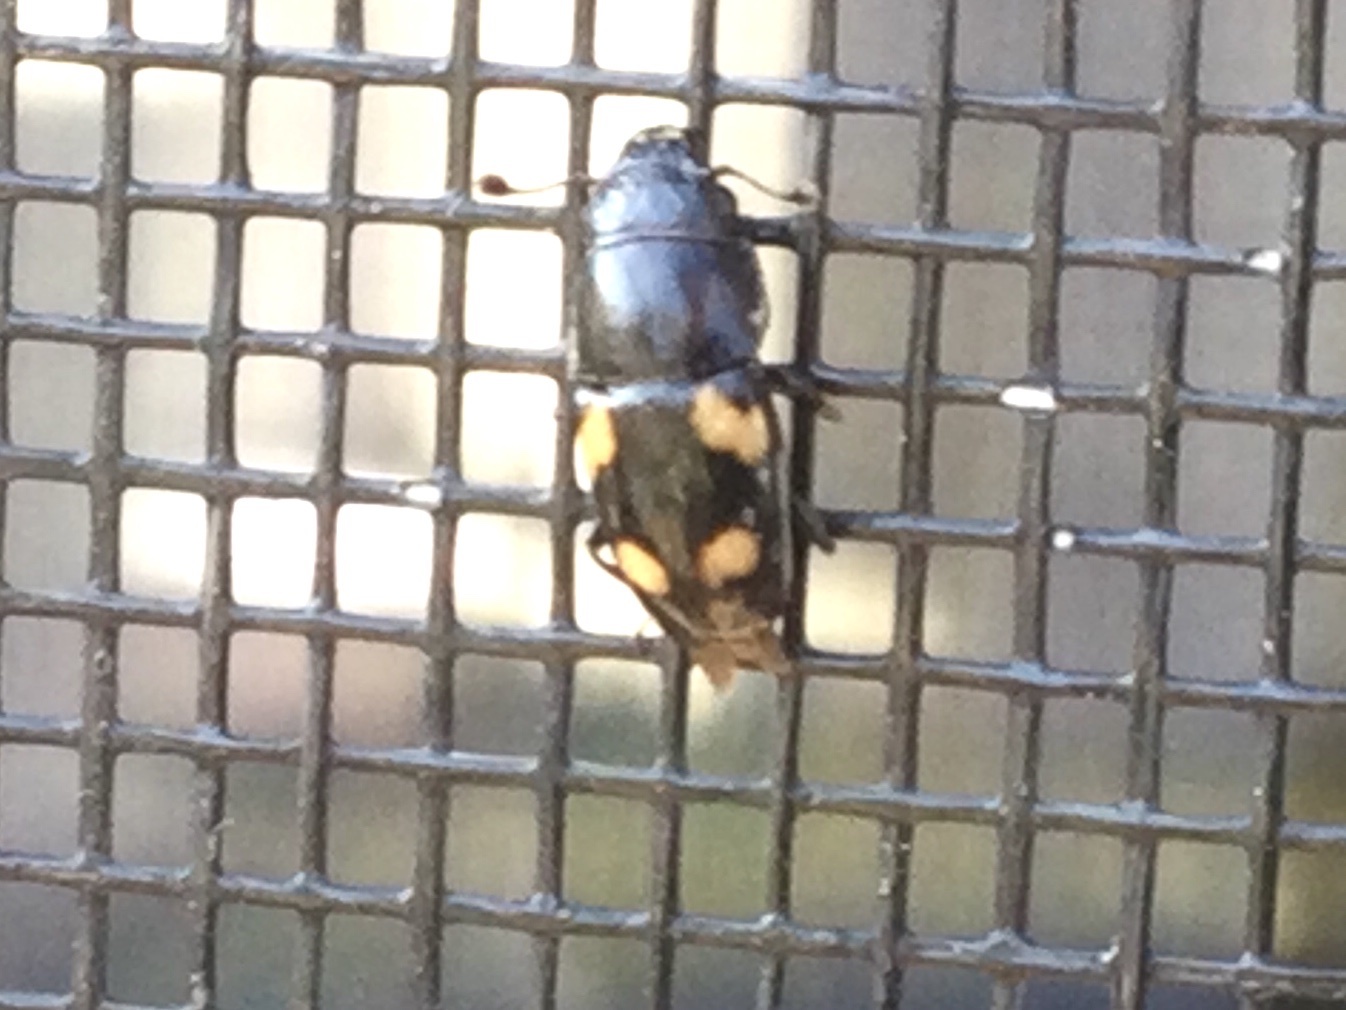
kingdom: Animalia
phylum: Arthropoda
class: Insecta
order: Coleoptera
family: Nitidulidae
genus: Glischrochilus
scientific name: Glischrochilus quadrisignatus
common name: Picnic beetle
